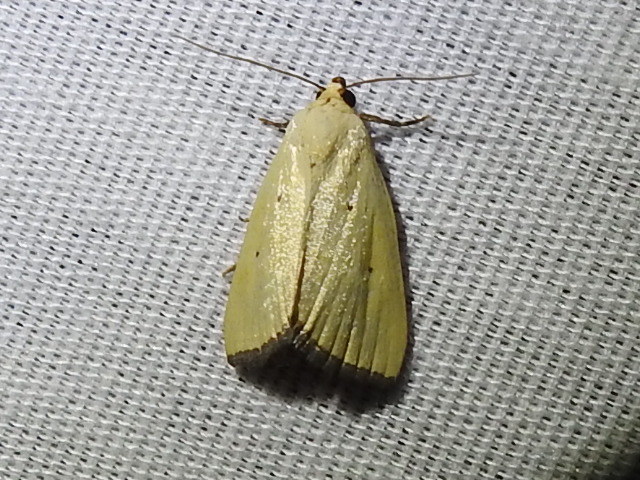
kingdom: Animalia
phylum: Arthropoda
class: Insecta
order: Lepidoptera
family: Noctuidae
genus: Marimatha
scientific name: Marimatha nigrofimbria
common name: Black-bordered lemon moth
